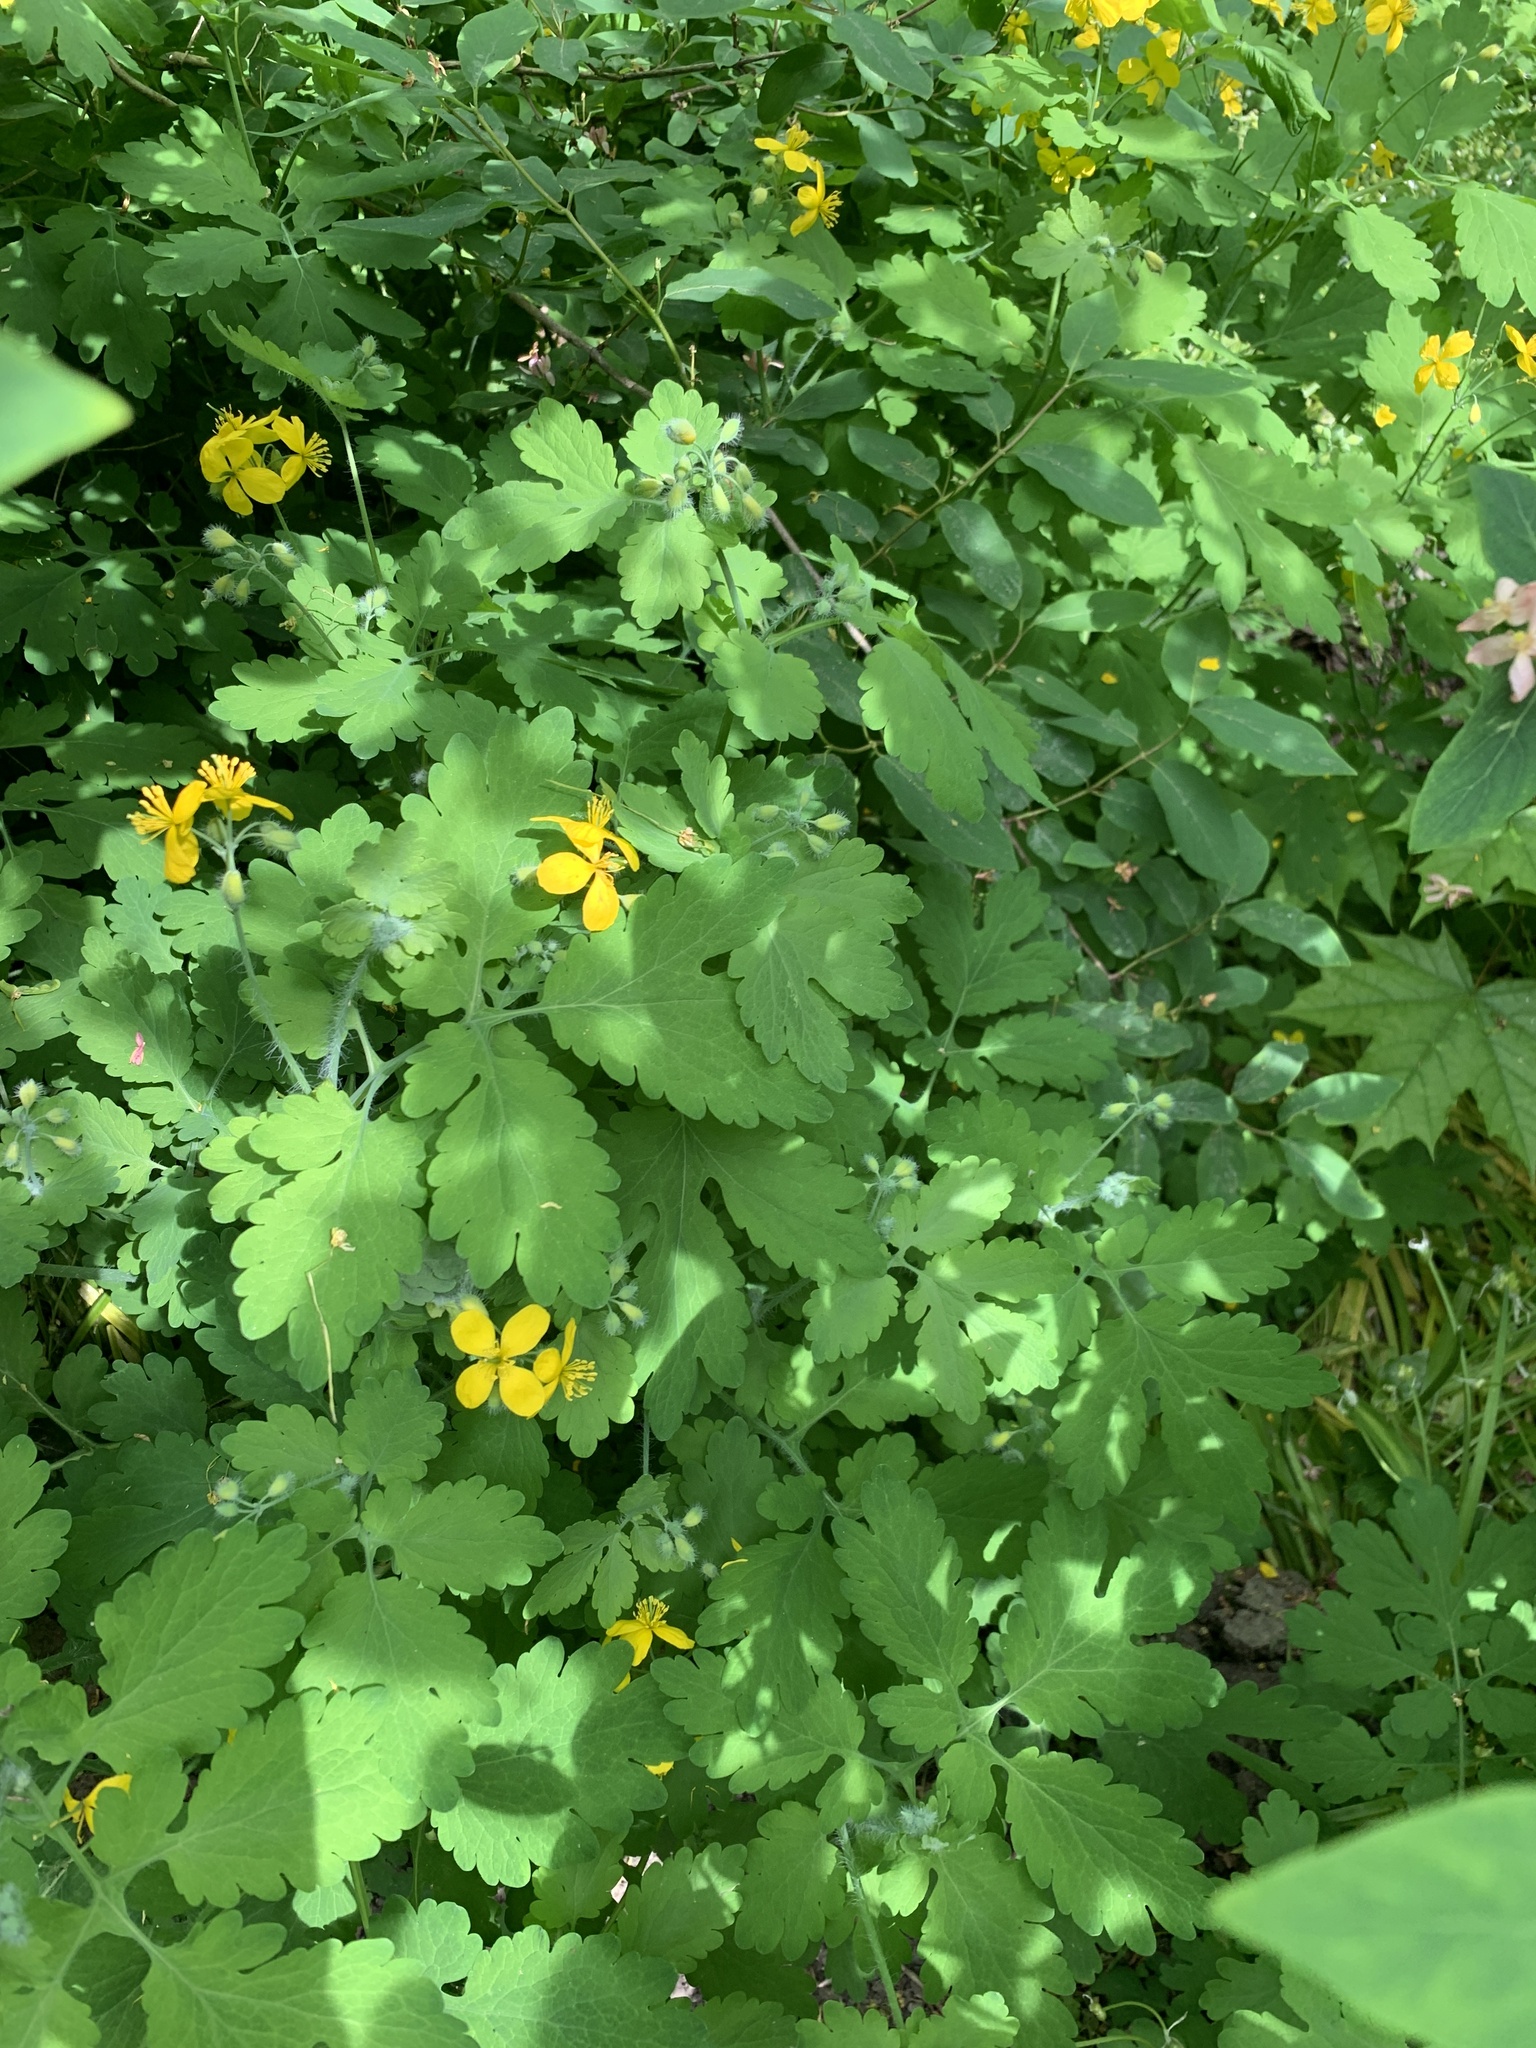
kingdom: Plantae
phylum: Tracheophyta
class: Magnoliopsida
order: Ranunculales
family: Papaveraceae
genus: Chelidonium
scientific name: Chelidonium majus
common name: Greater celandine
